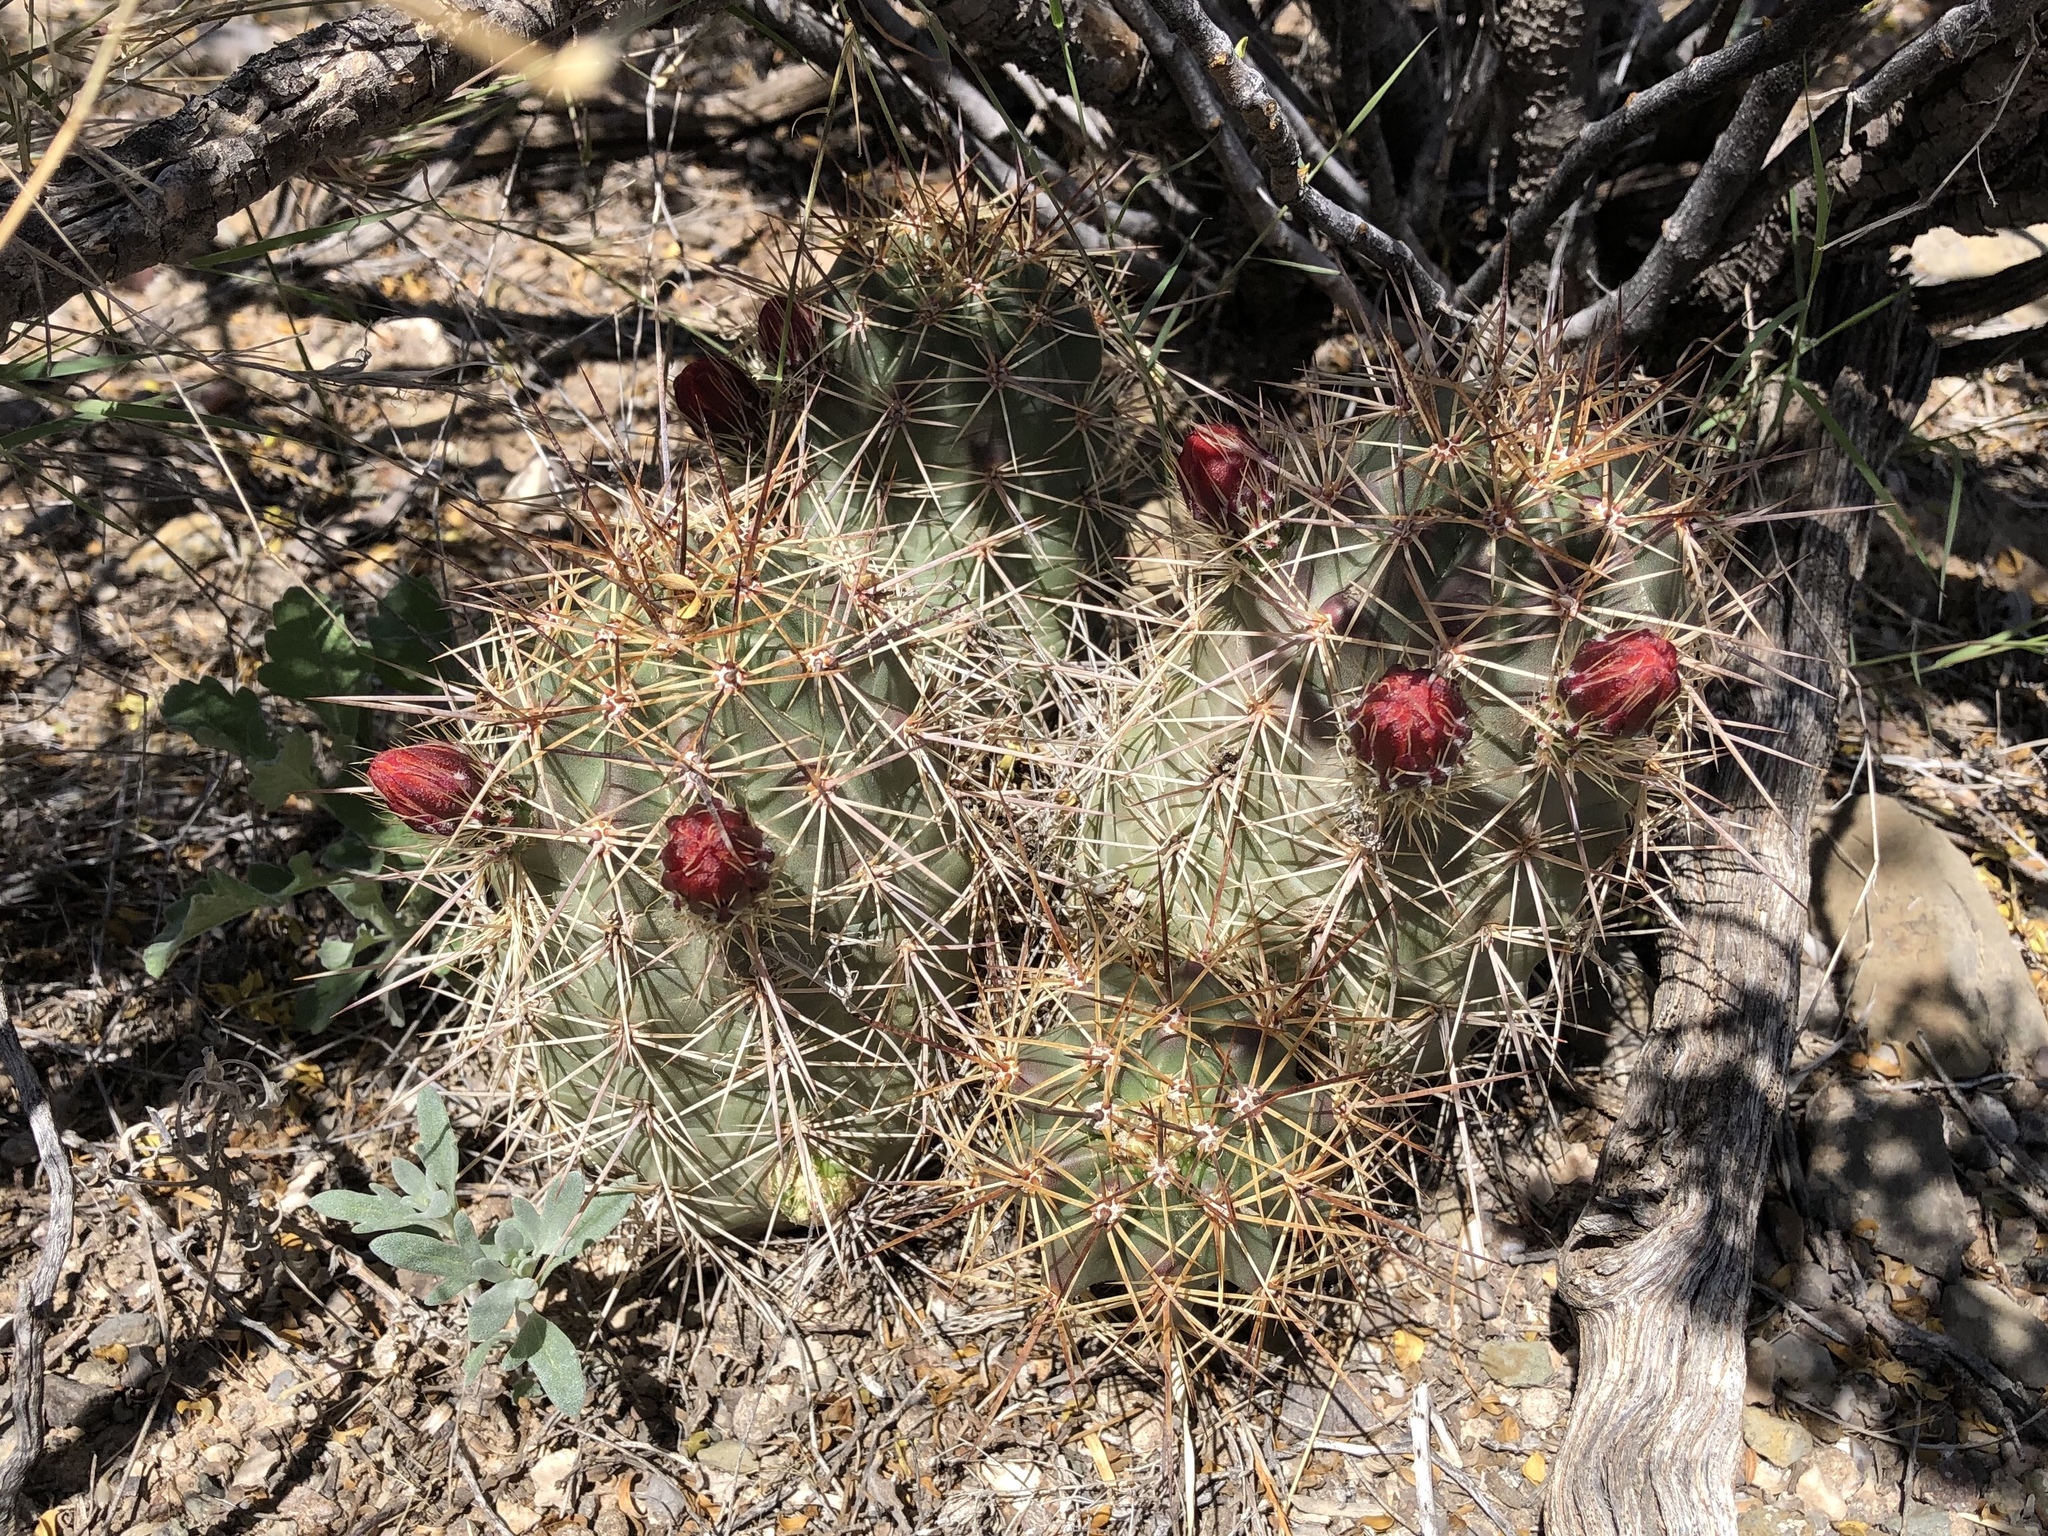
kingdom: Plantae
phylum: Tracheophyta
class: Magnoliopsida
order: Caryophyllales
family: Cactaceae
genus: Echinocereus
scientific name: Echinocereus coccineus
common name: Scarlet hedgehog cactus
